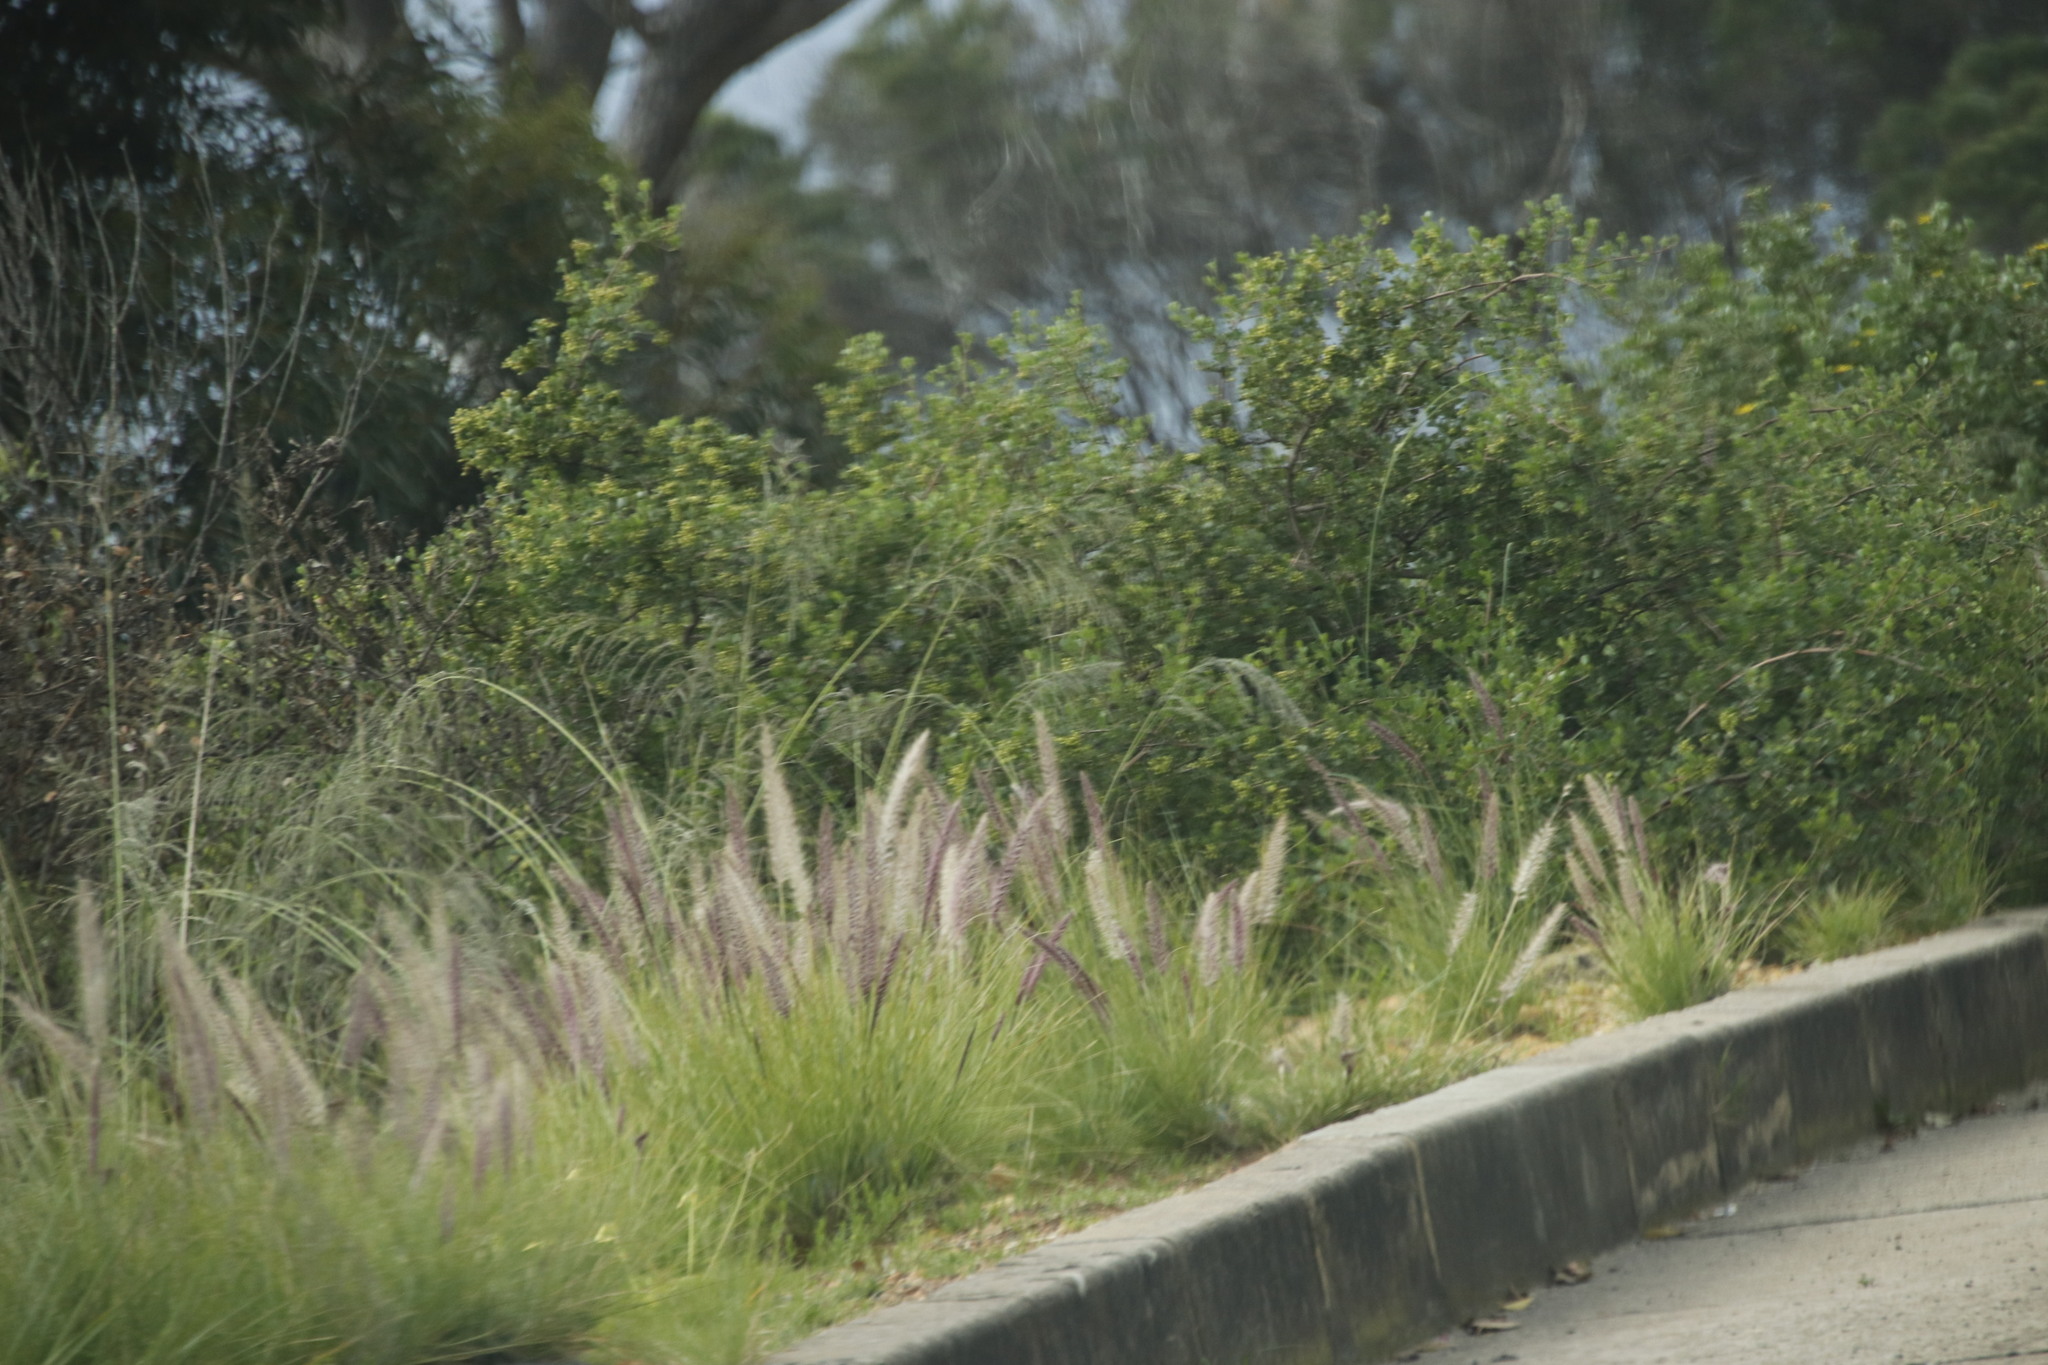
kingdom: Plantae
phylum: Tracheophyta
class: Liliopsida
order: Poales
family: Poaceae
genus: Cenchrus
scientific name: Cenchrus setaceus
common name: Crimson fountaingrass
